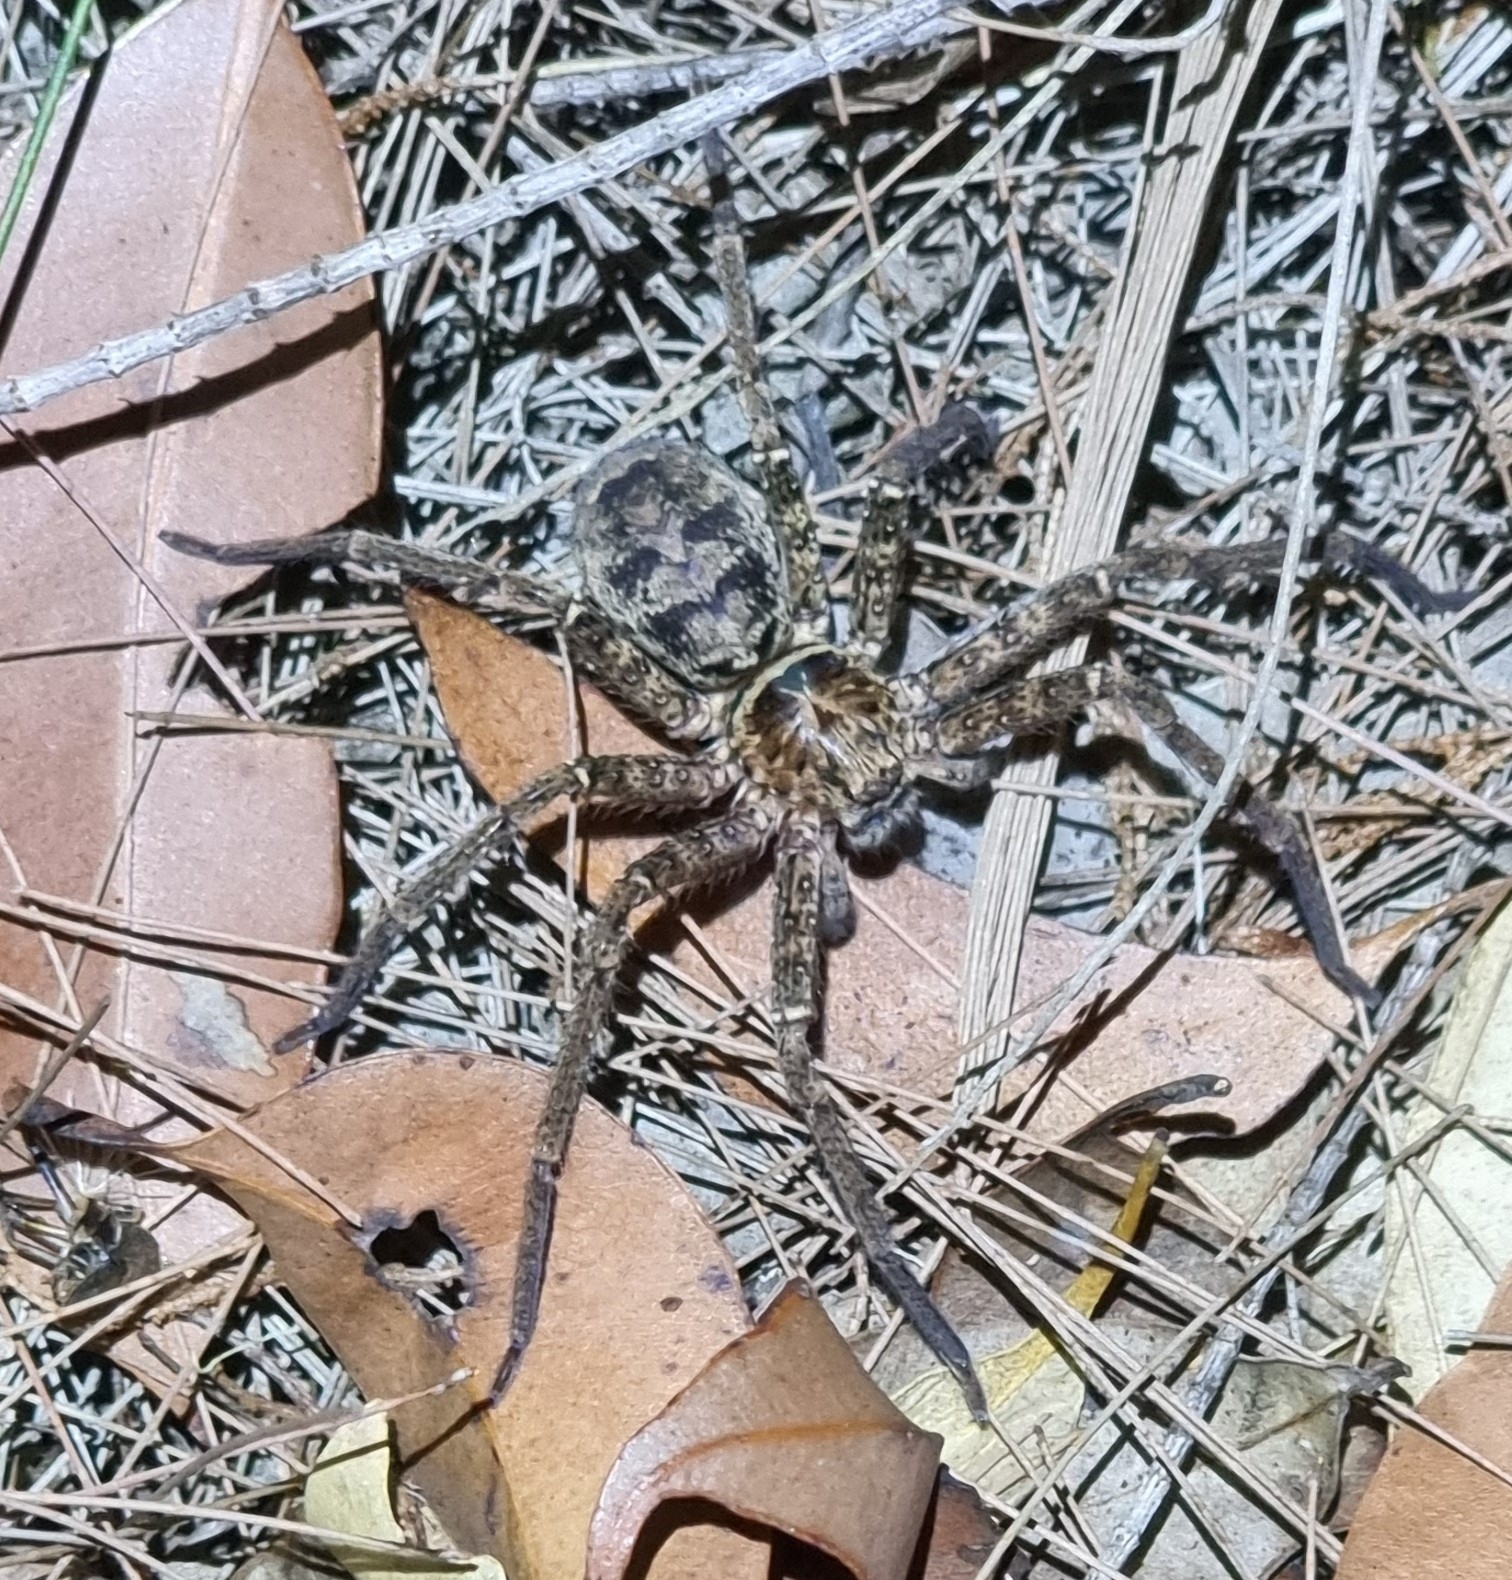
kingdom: Animalia
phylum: Arthropoda
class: Arachnida
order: Araneae
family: Sparassidae
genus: Heteropoda
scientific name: Heteropoda jugulans
